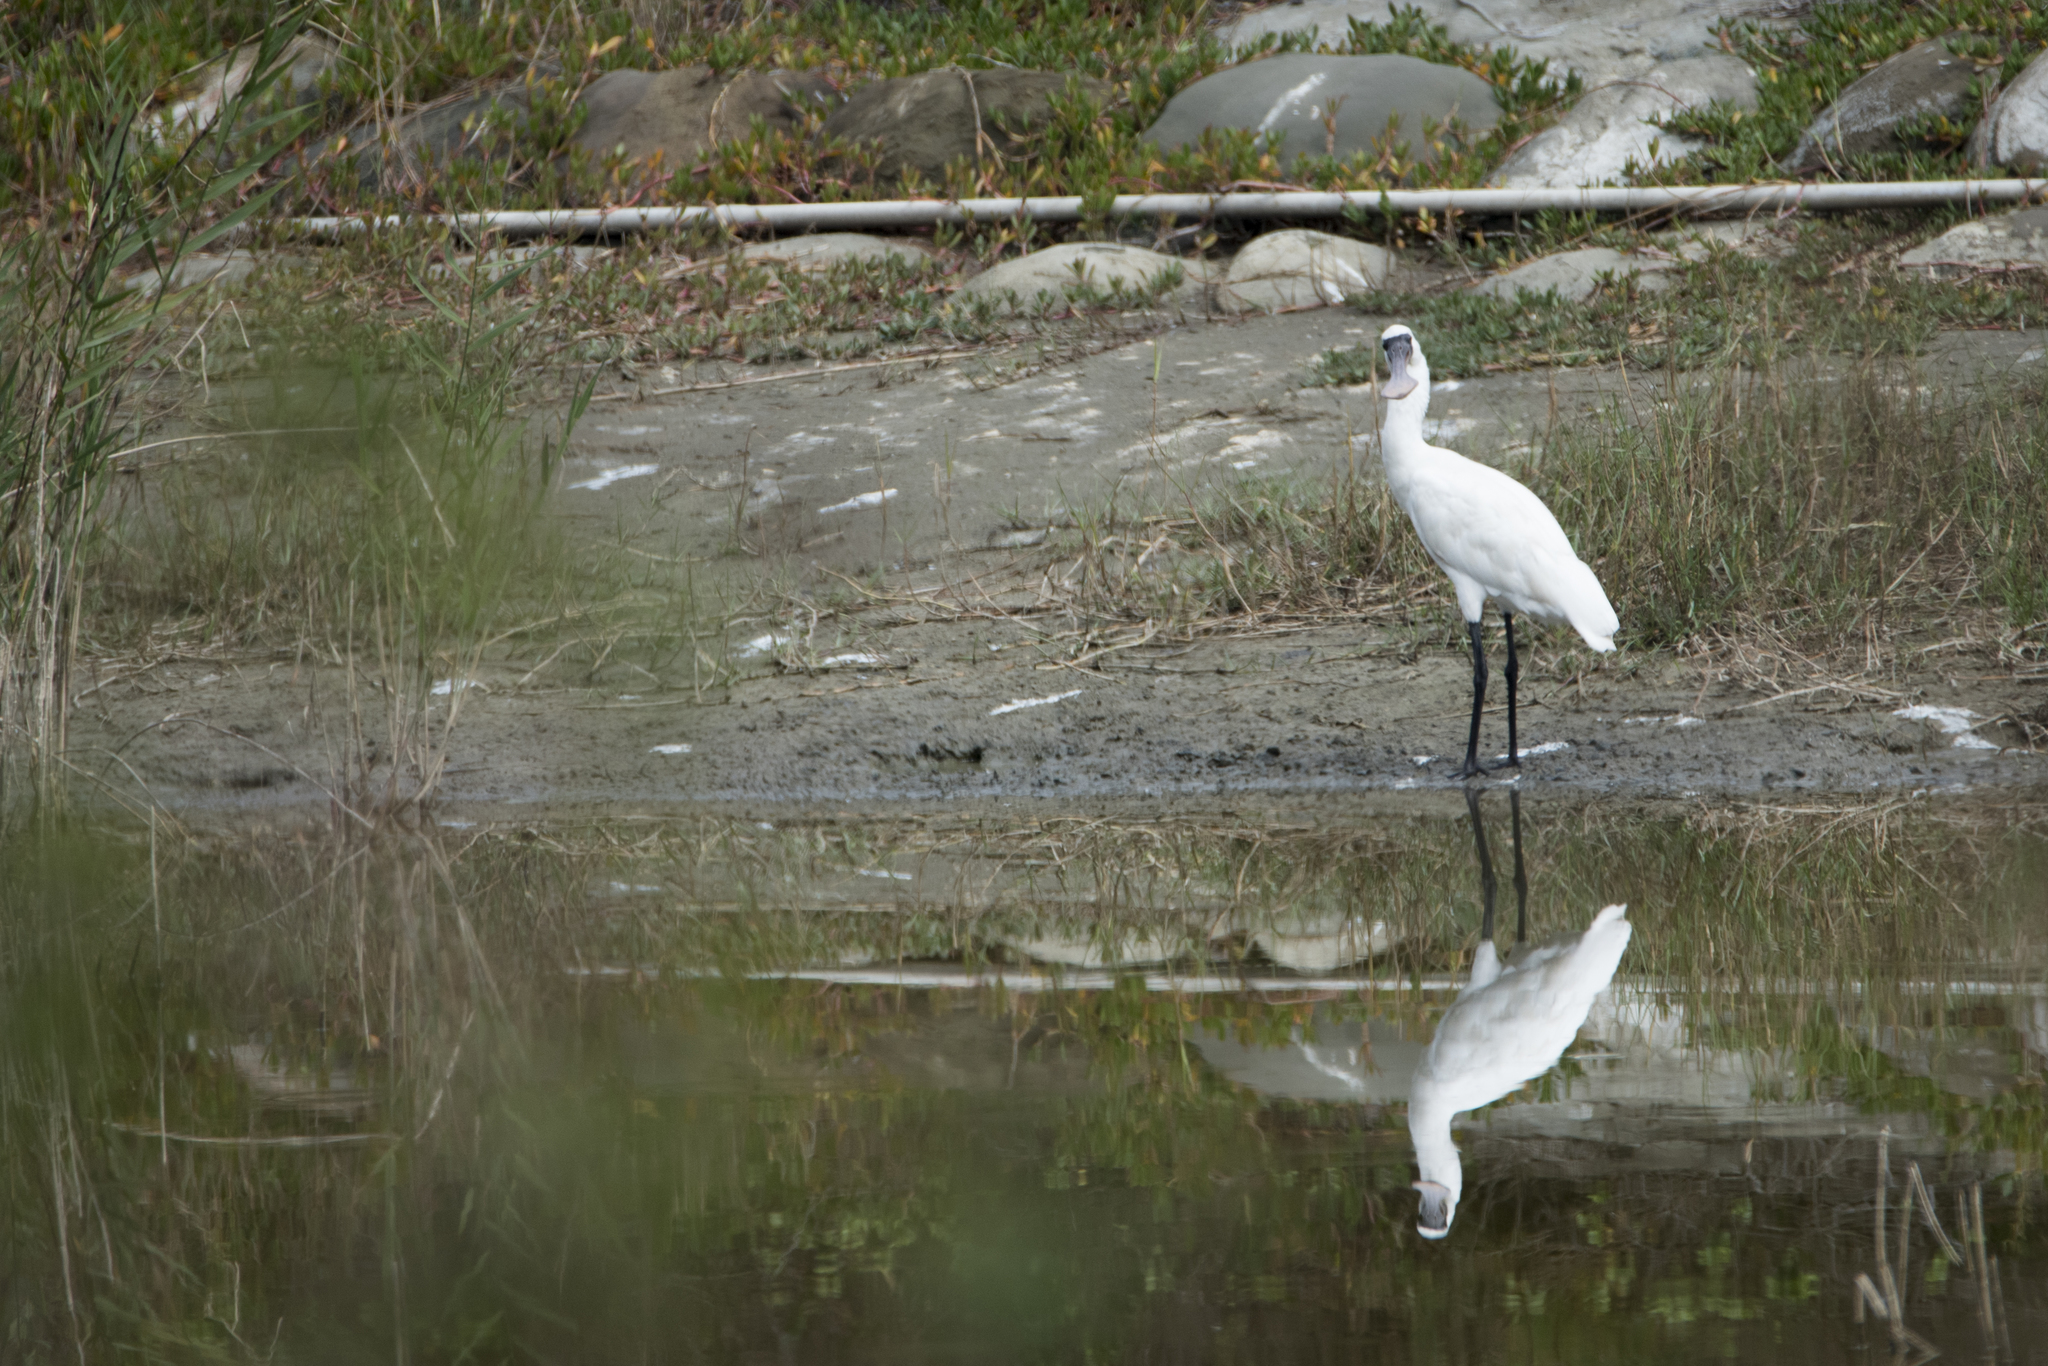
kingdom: Animalia
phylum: Chordata
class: Aves
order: Pelecaniformes
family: Threskiornithidae
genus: Platalea
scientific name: Platalea minor
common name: Black-faced spoonbill
